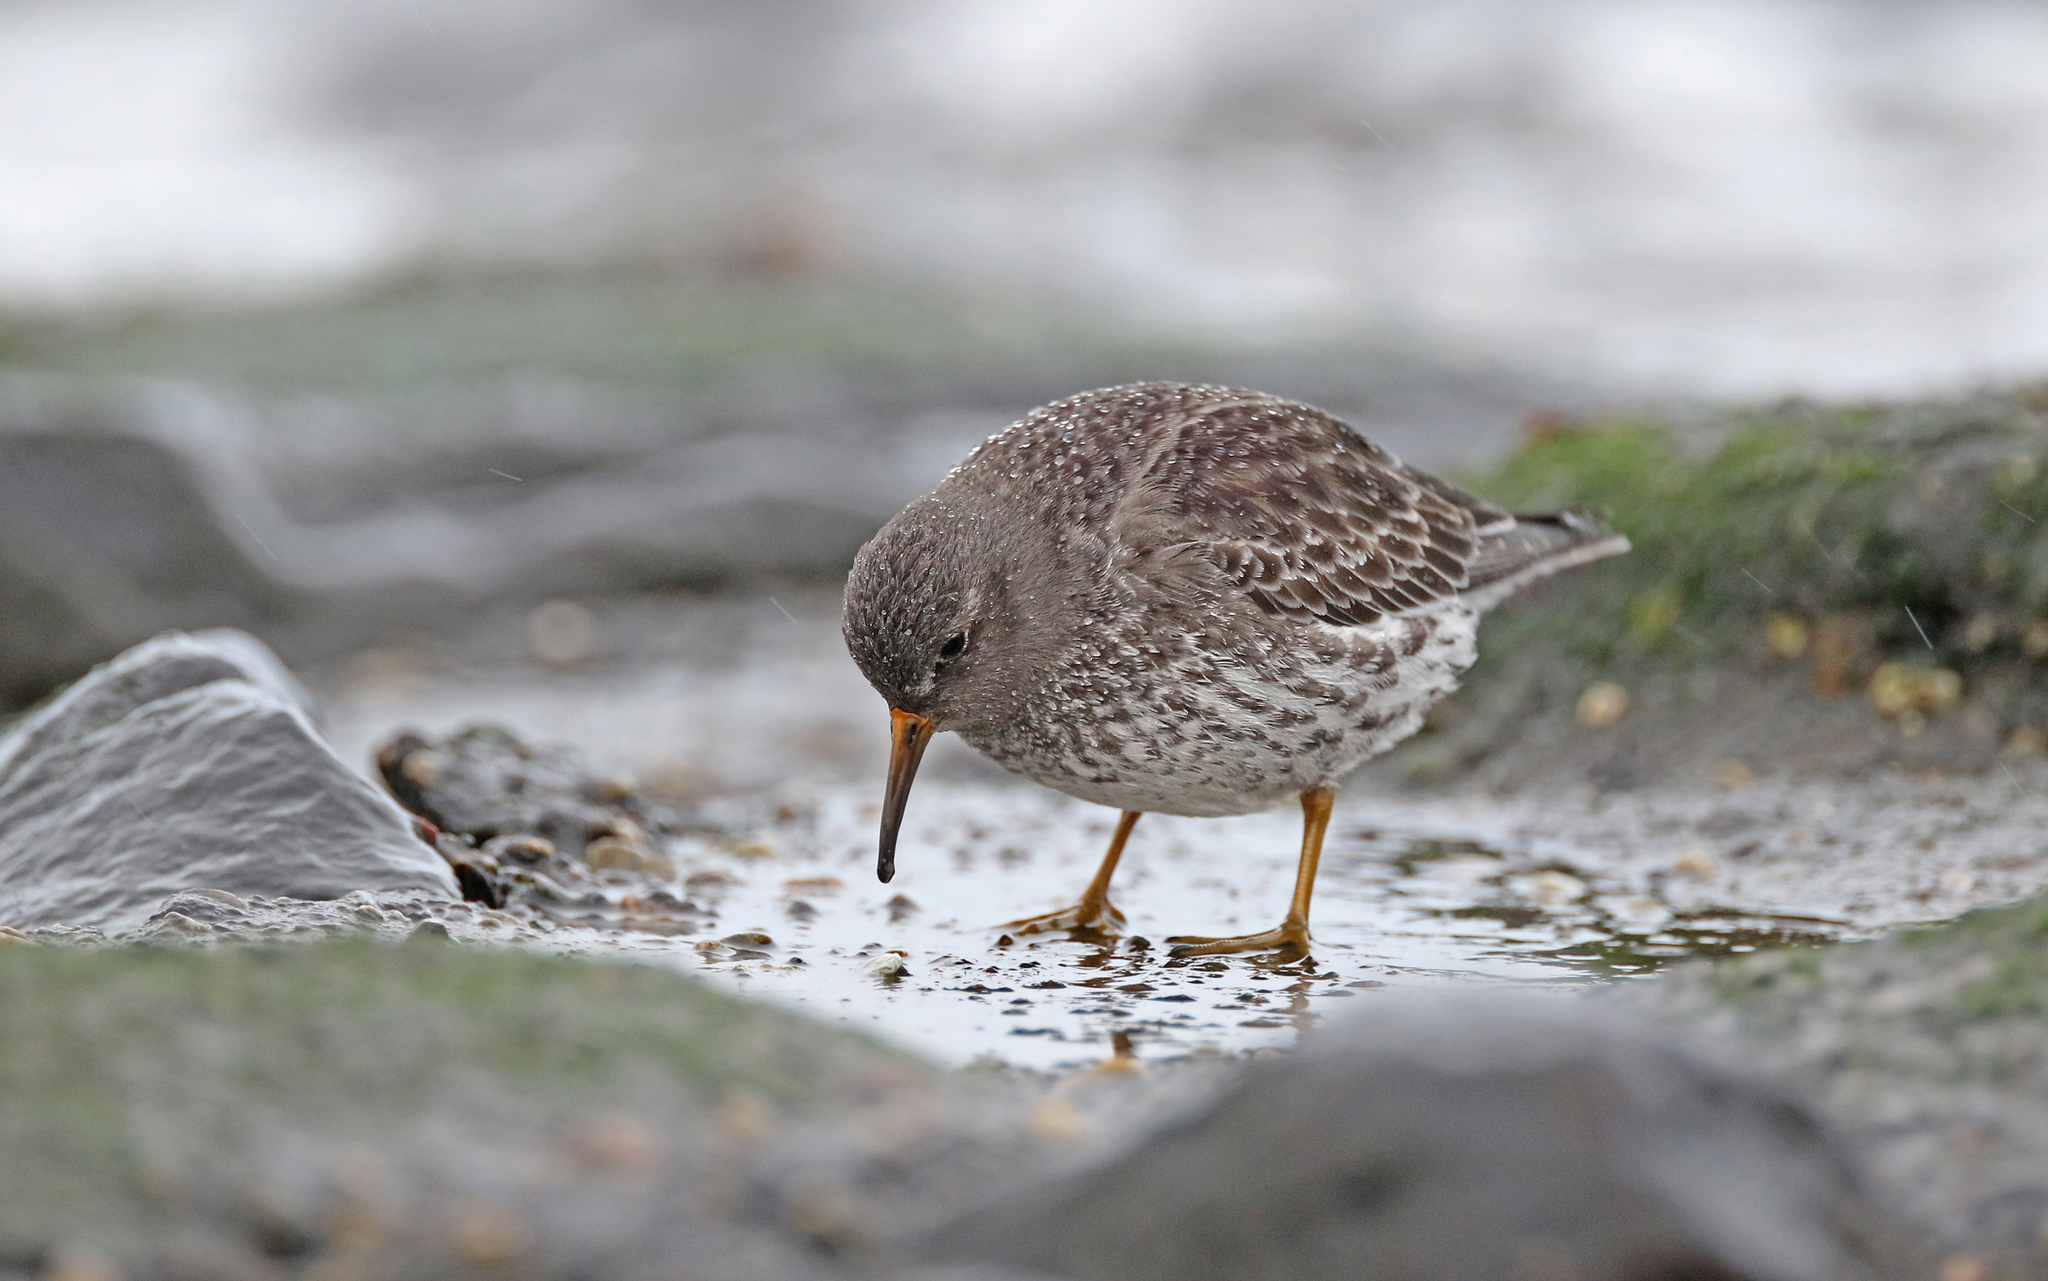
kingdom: Animalia
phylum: Chordata
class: Aves
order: Charadriiformes
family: Scolopacidae
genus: Calidris
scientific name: Calidris maritima
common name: Purple sandpiper
